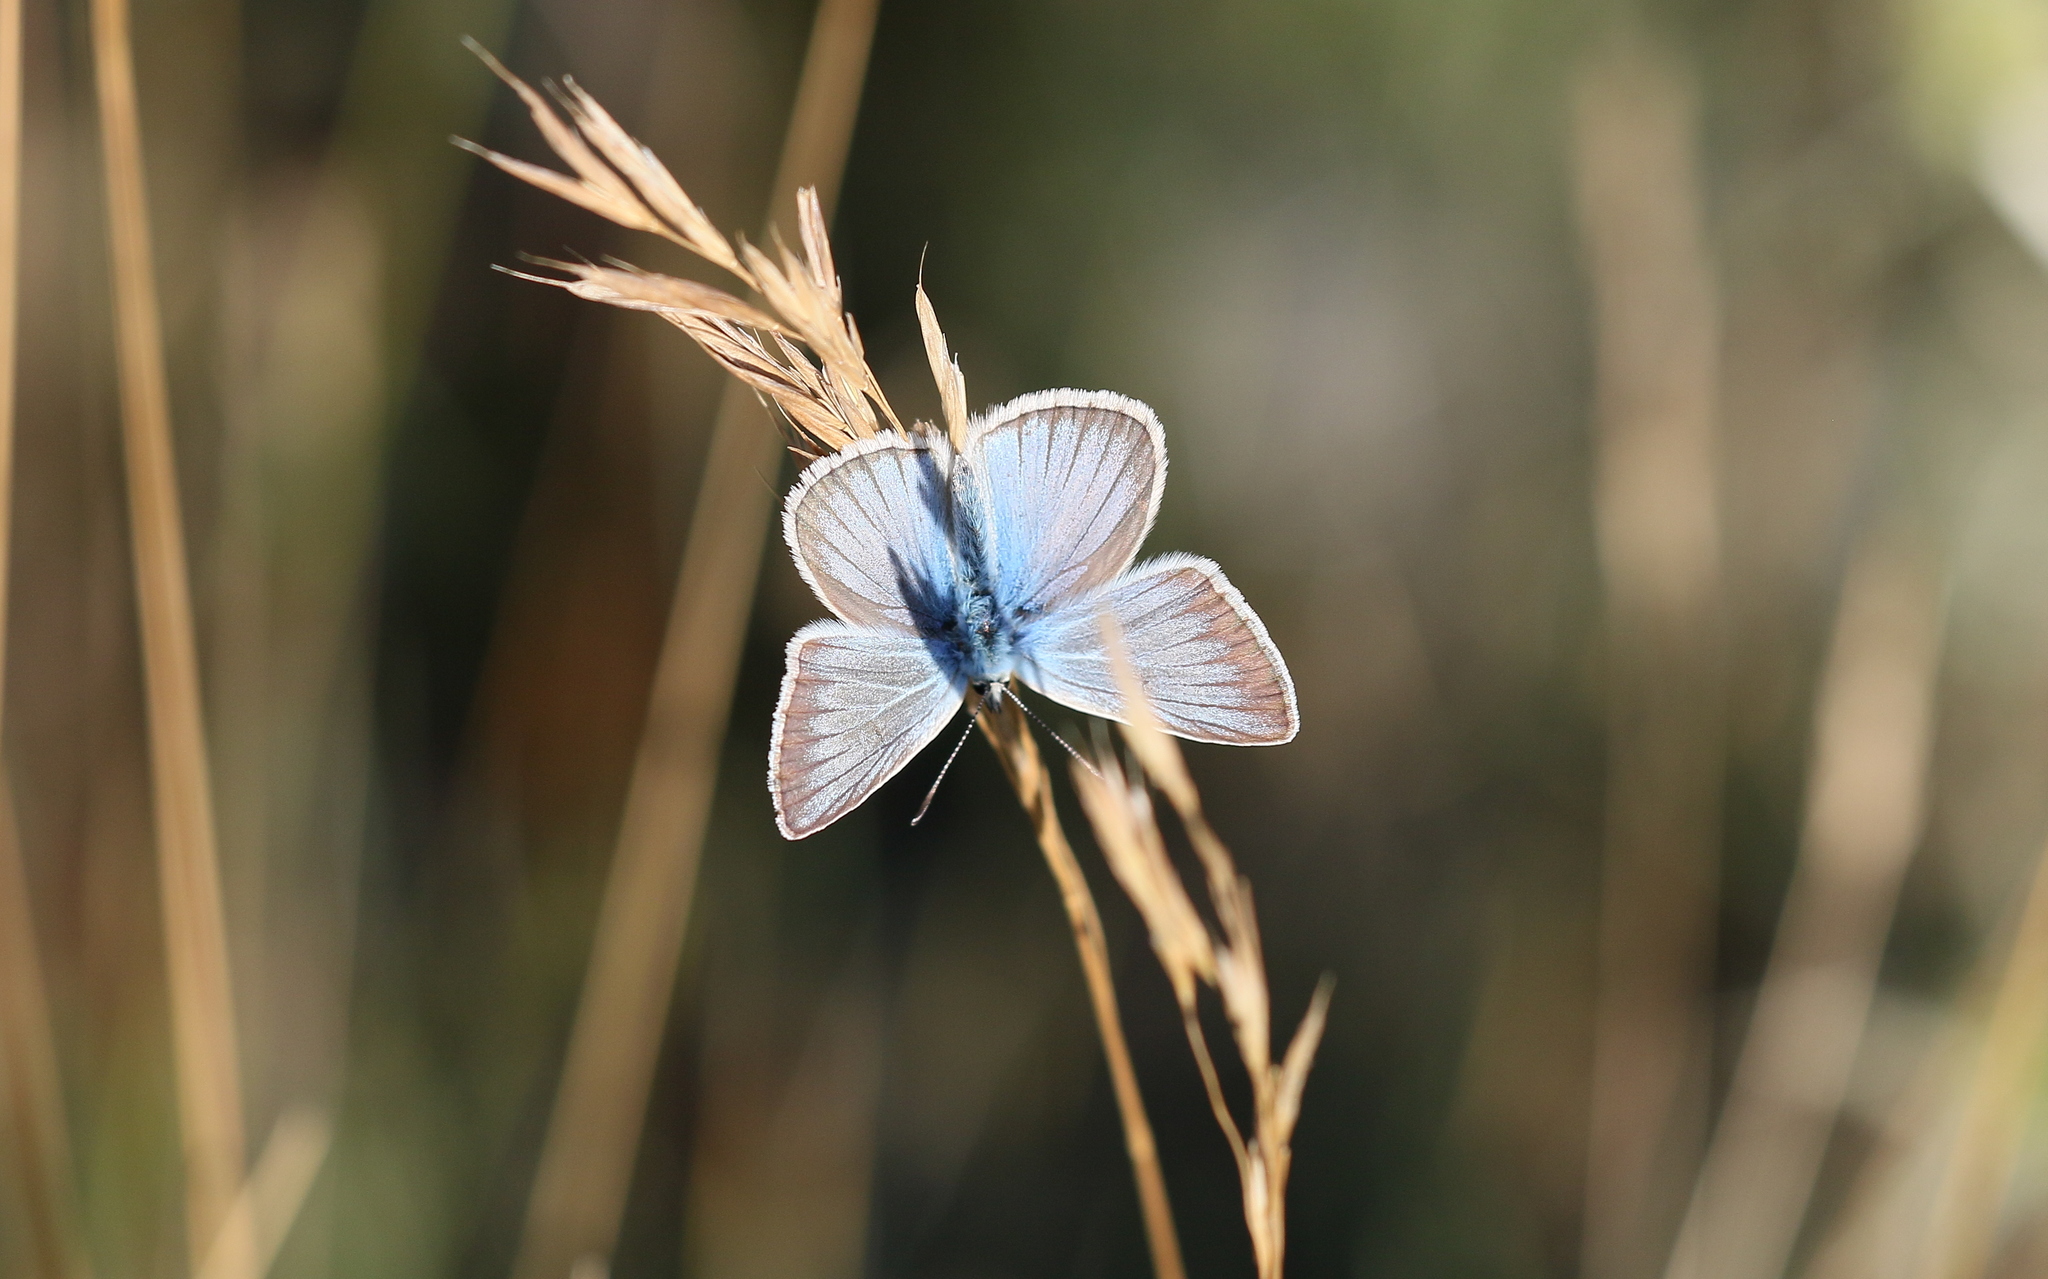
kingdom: Animalia
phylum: Arthropoda
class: Insecta
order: Lepidoptera
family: Lycaenidae
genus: Agrodiaetus
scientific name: Agrodiaetus damon
